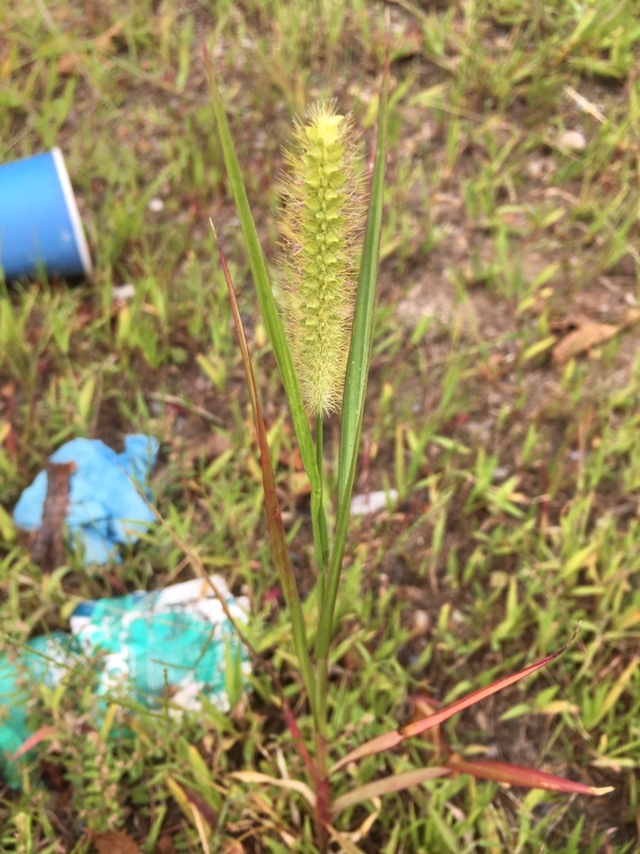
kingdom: Plantae
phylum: Tracheophyta
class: Liliopsida
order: Poales
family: Poaceae
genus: Setaria
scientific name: Setaria pumila
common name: Yellow bristle-grass
